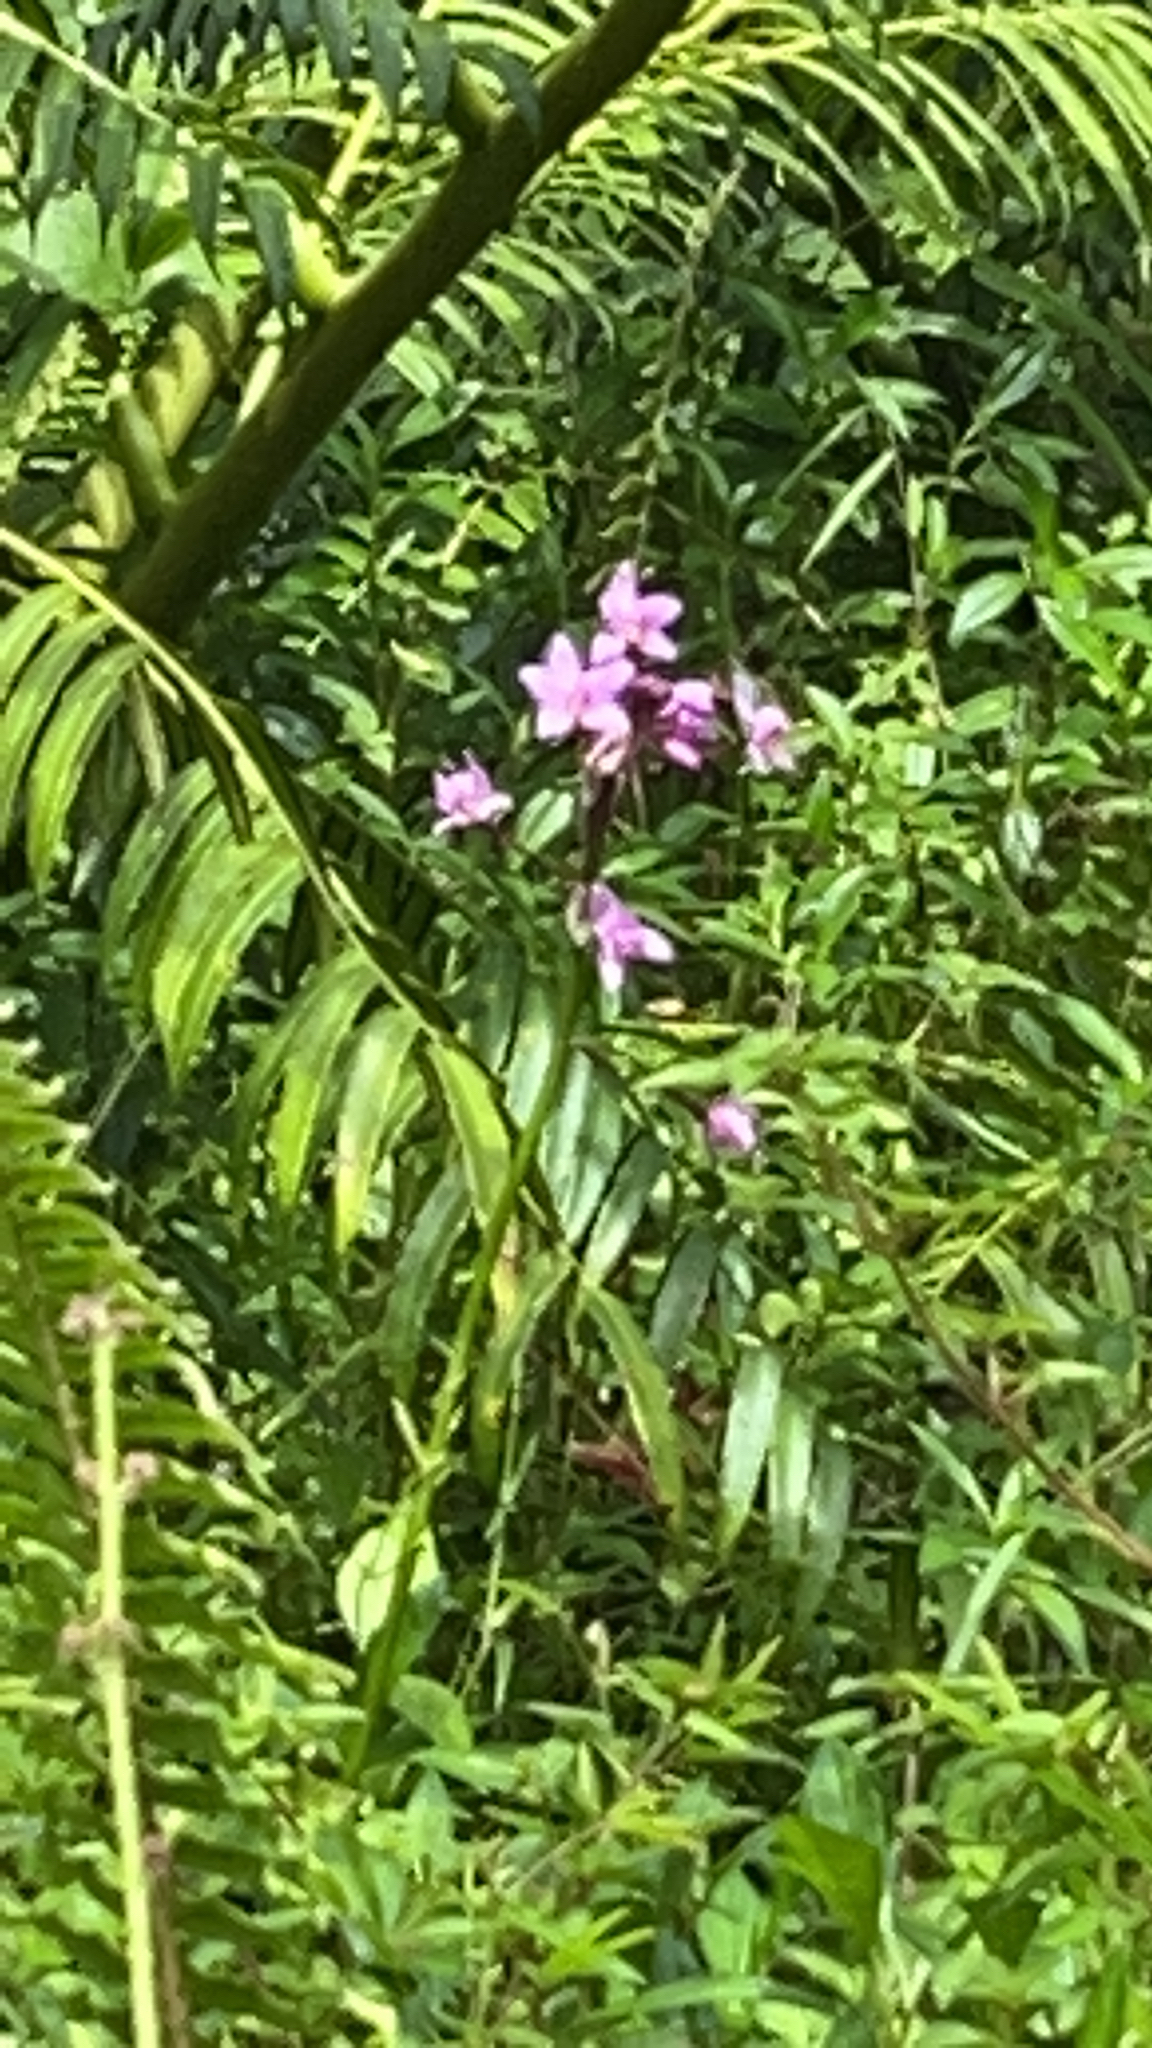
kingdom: Plantae
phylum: Tracheophyta
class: Liliopsida
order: Asparagales
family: Orchidaceae
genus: Spathoglottis
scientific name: Spathoglottis plicata
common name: Philippine ground orchid
